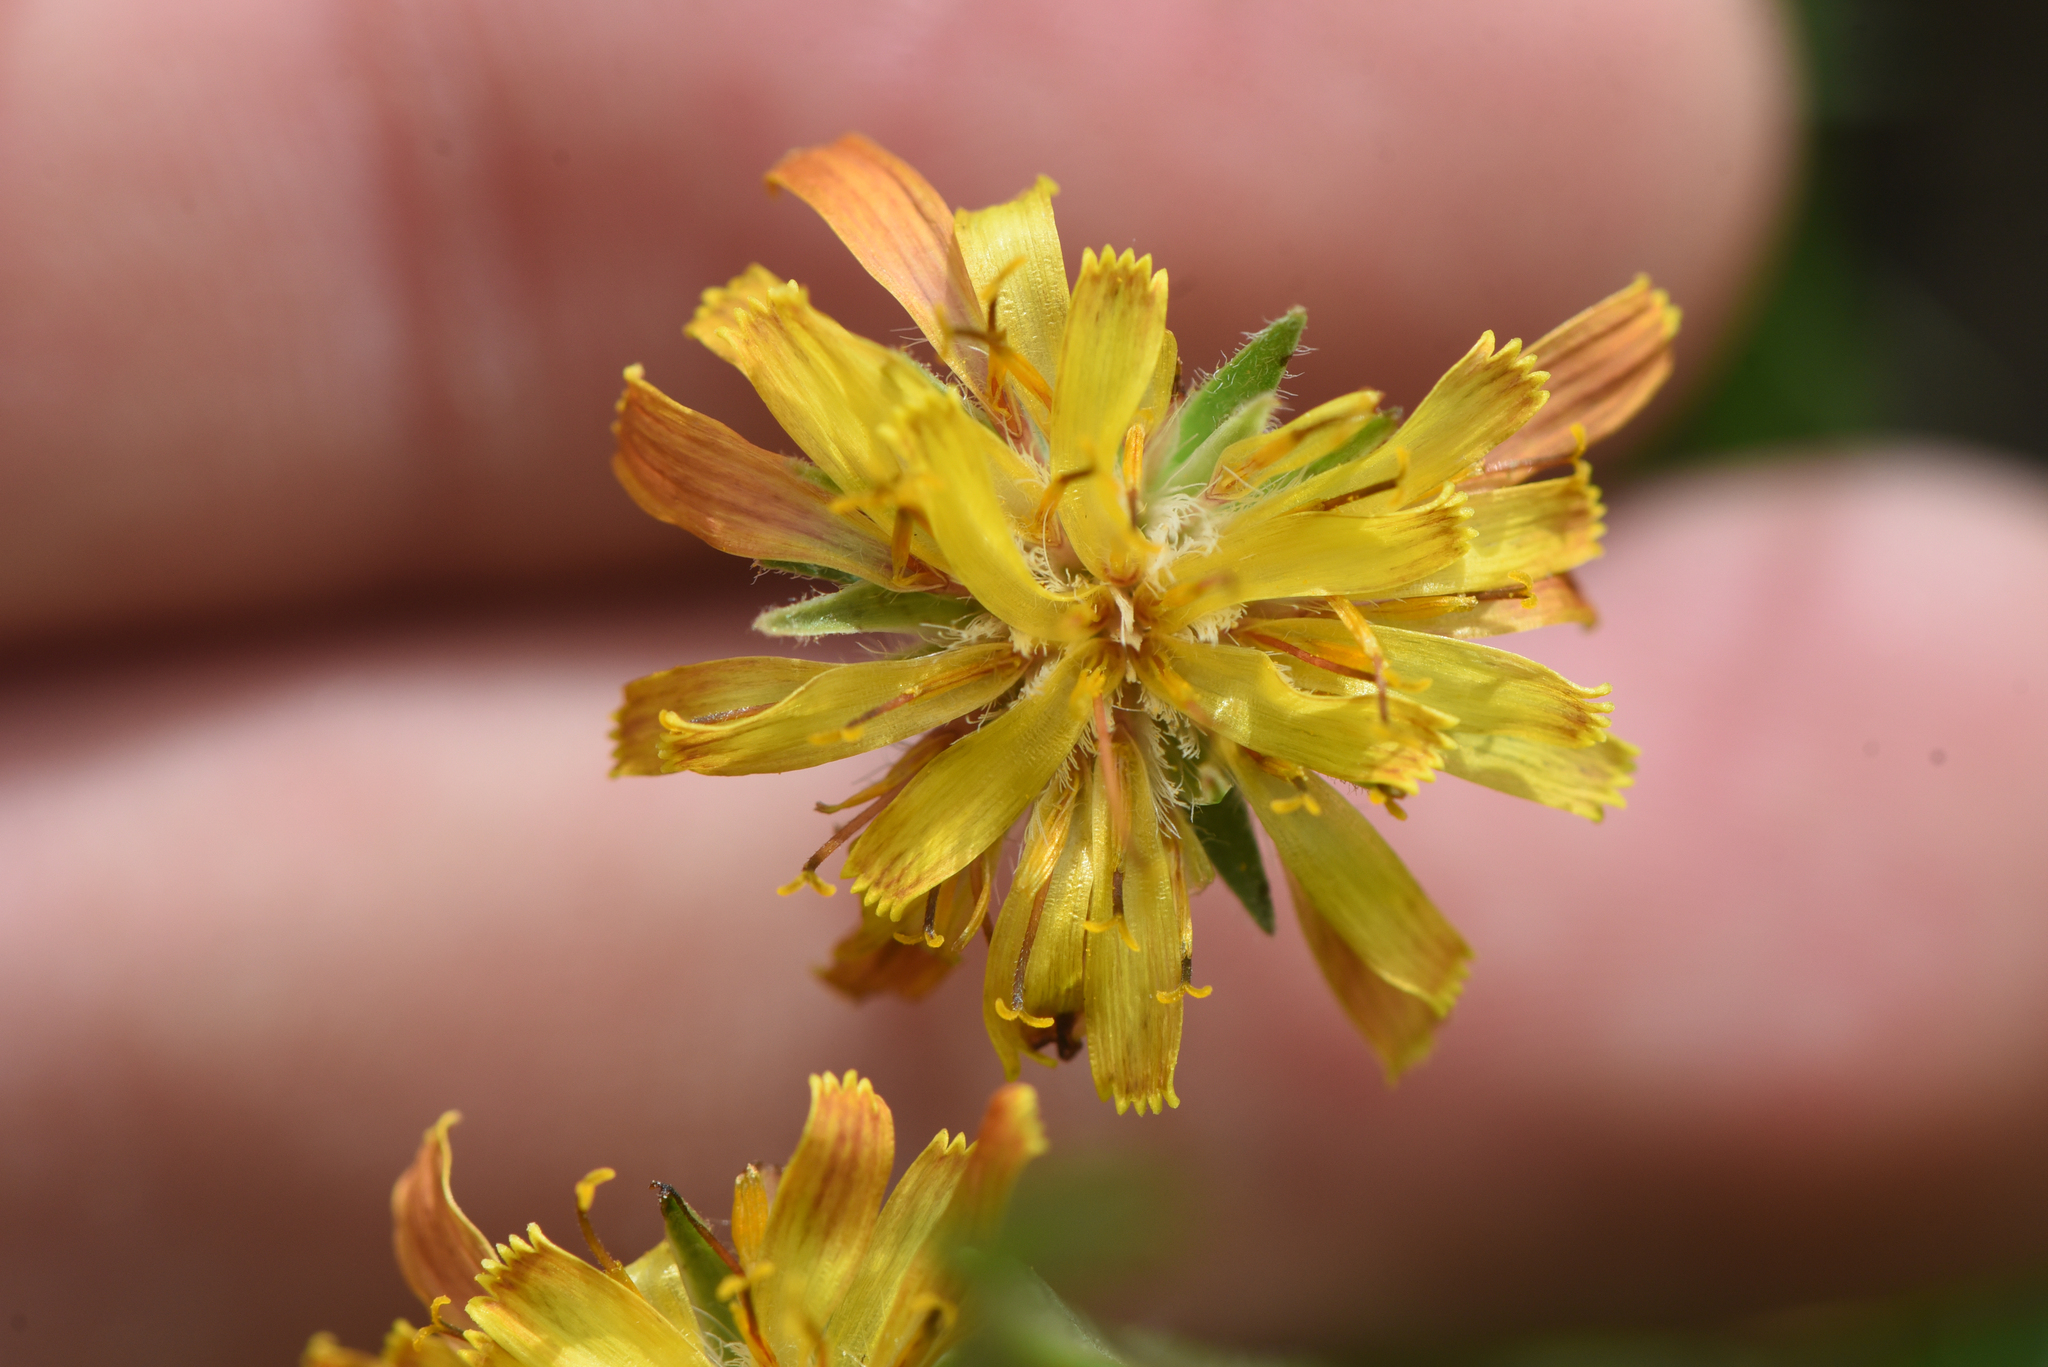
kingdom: Plantae
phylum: Tracheophyta
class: Magnoliopsida
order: Asterales
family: Asteraceae
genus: Agoseris
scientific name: Agoseris aurantiaca
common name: Mountain agoseris
